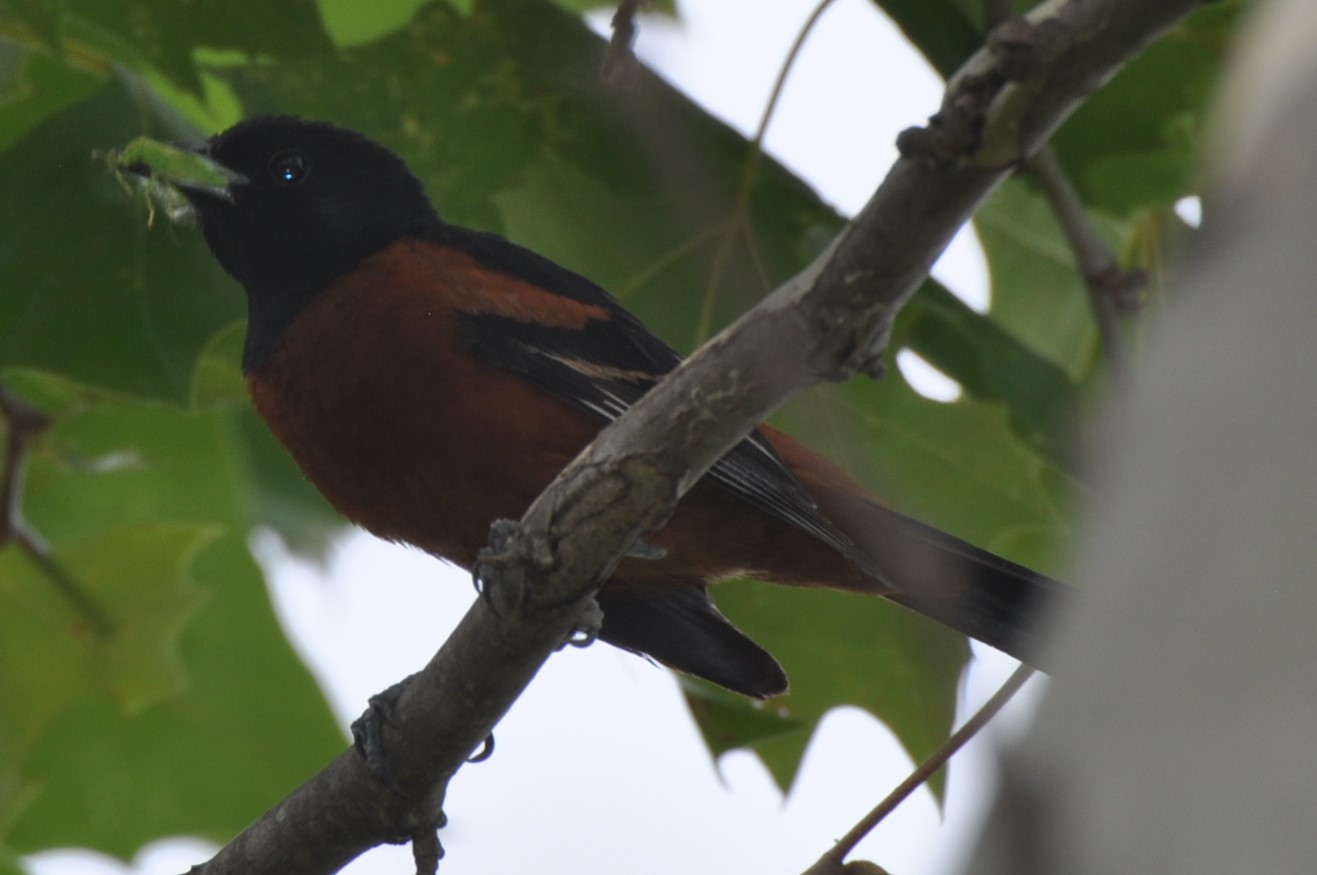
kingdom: Animalia
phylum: Chordata
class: Aves
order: Passeriformes
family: Icteridae
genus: Icterus
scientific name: Icterus spurius
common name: Orchard oriole
